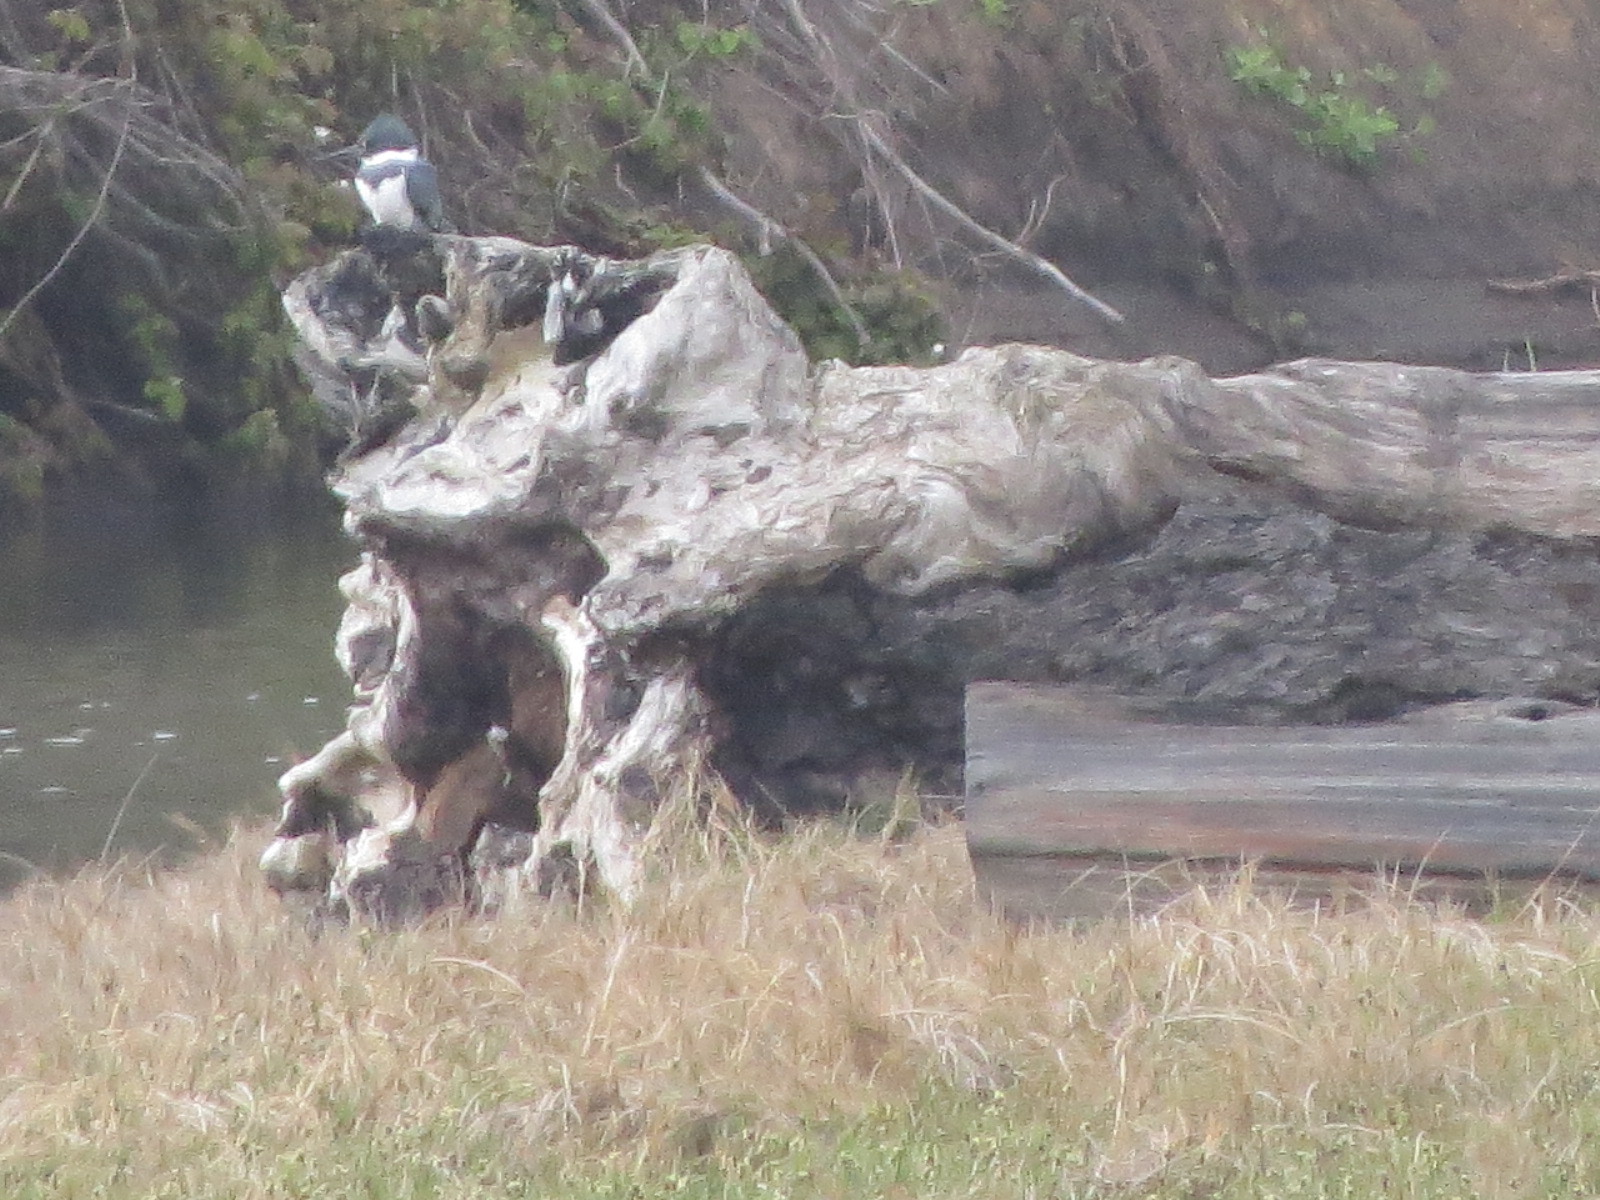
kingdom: Animalia
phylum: Chordata
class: Aves
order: Coraciiformes
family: Alcedinidae
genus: Megaceryle
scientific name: Megaceryle alcyon
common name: Belted kingfisher
